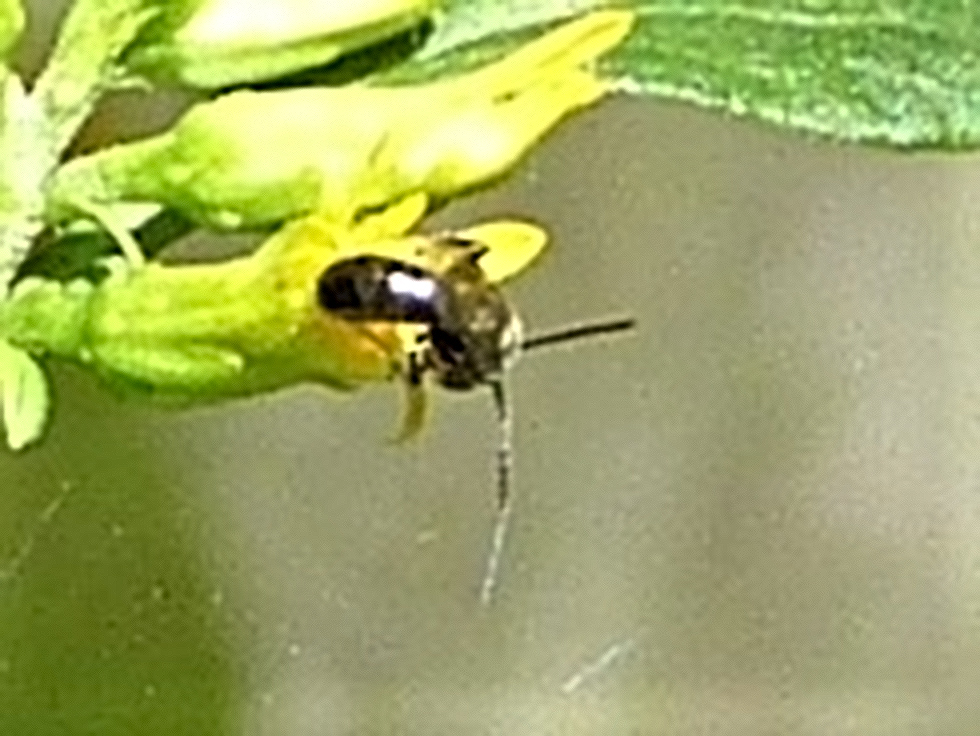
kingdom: Animalia
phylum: Arthropoda
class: Insecta
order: Hymenoptera
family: Halictidae
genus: Dialictus
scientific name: Dialictus
